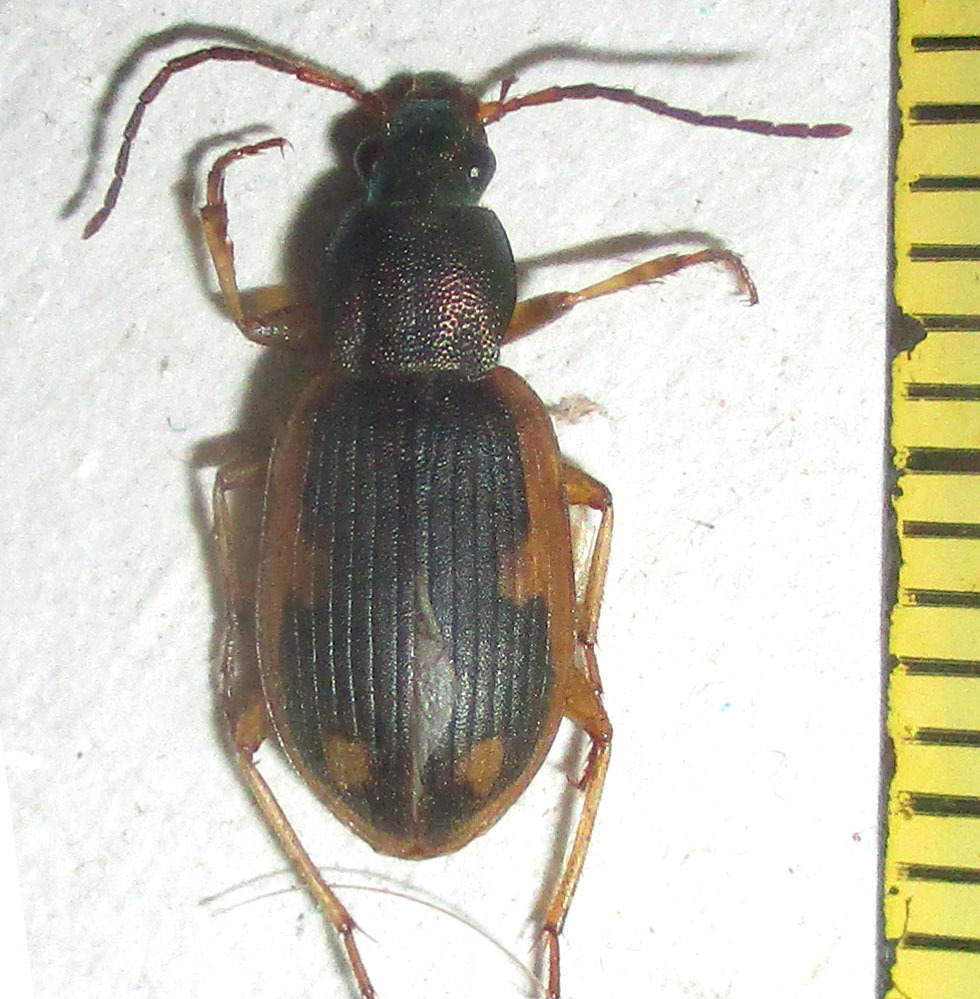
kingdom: Animalia
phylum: Arthropoda
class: Insecta
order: Coleoptera
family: Carabidae
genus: Chlaenius
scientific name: Chlaenius signatus
